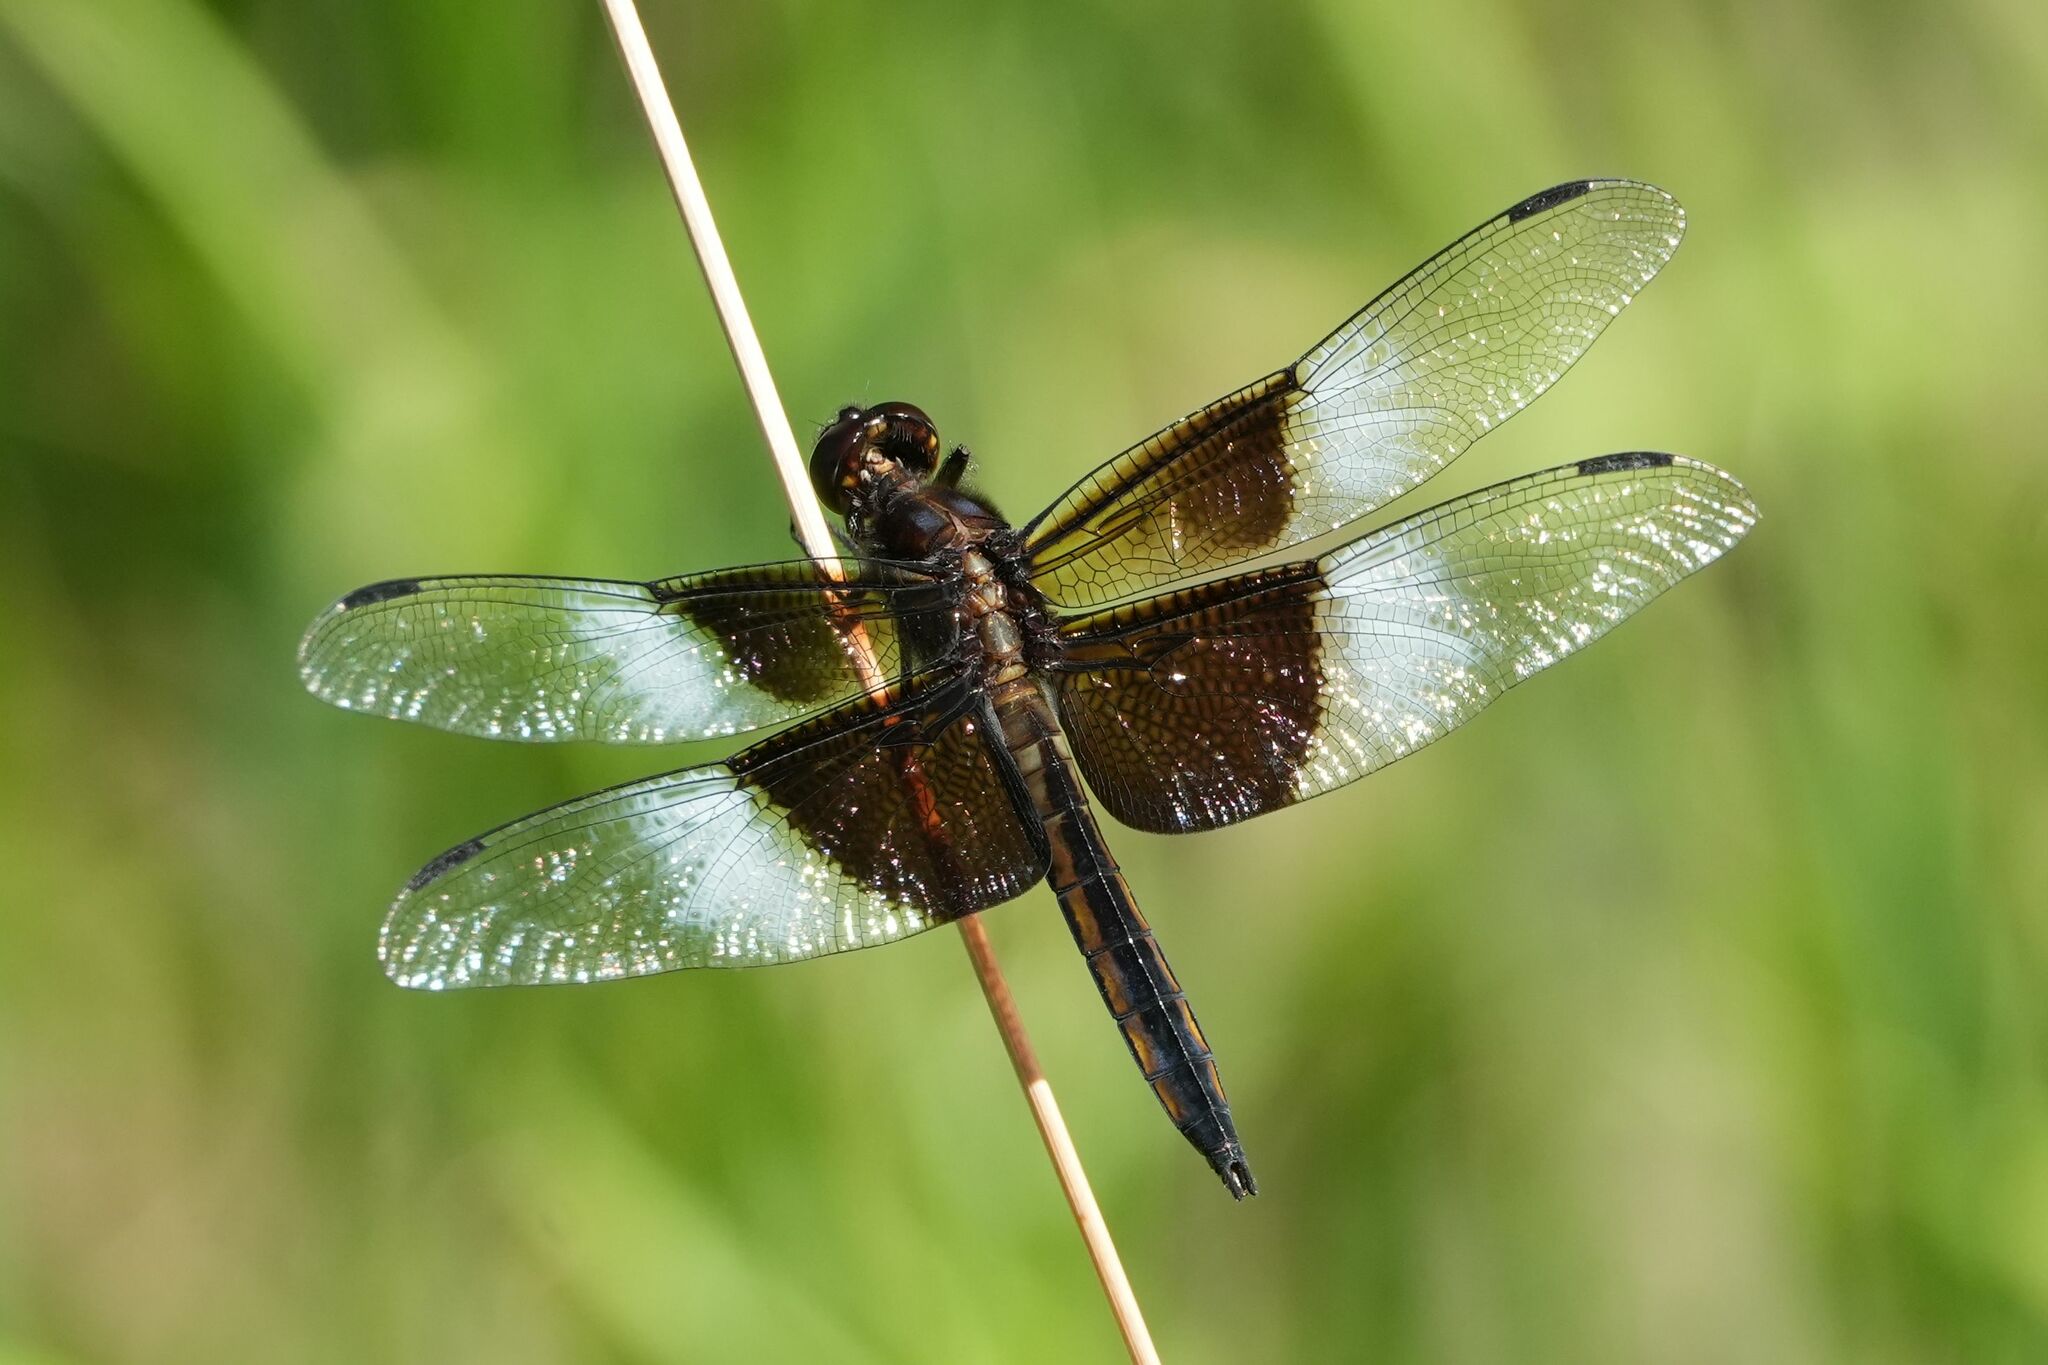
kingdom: Animalia
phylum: Arthropoda
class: Insecta
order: Odonata
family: Libellulidae
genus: Libellula
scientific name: Libellula luctuosa
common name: Widow skimmer
